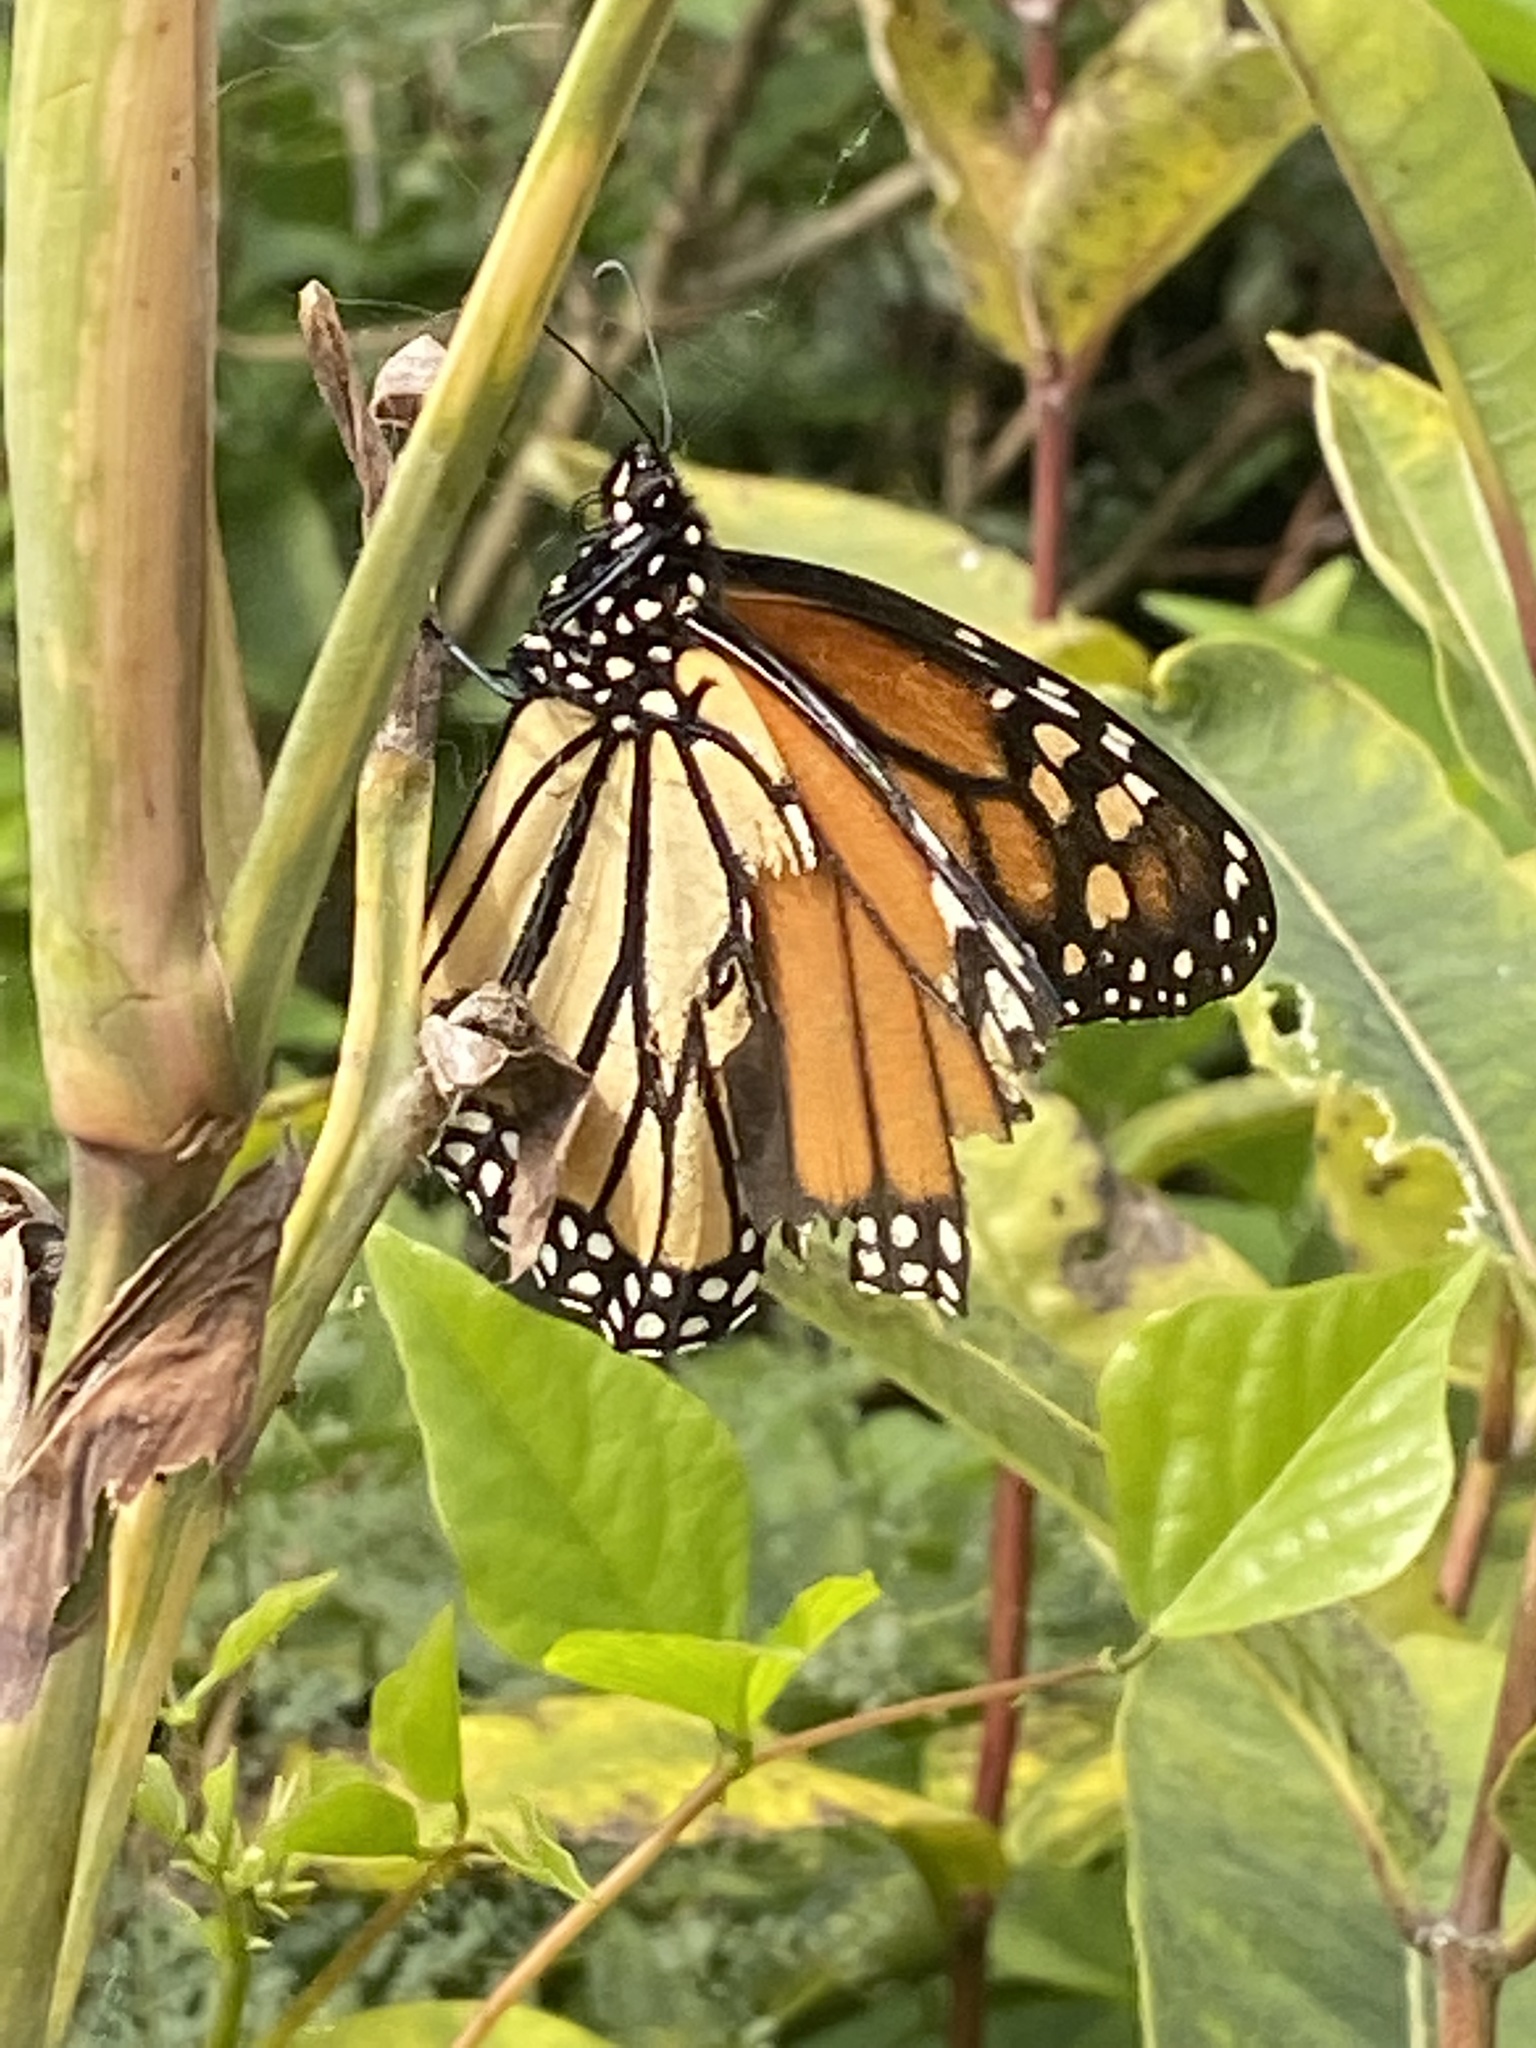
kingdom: Animalia
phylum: Arthropoda
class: Insecta
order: Lepidoptera
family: Nymphalidae
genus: Danaus
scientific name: Danaus plexippus
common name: Monarch
